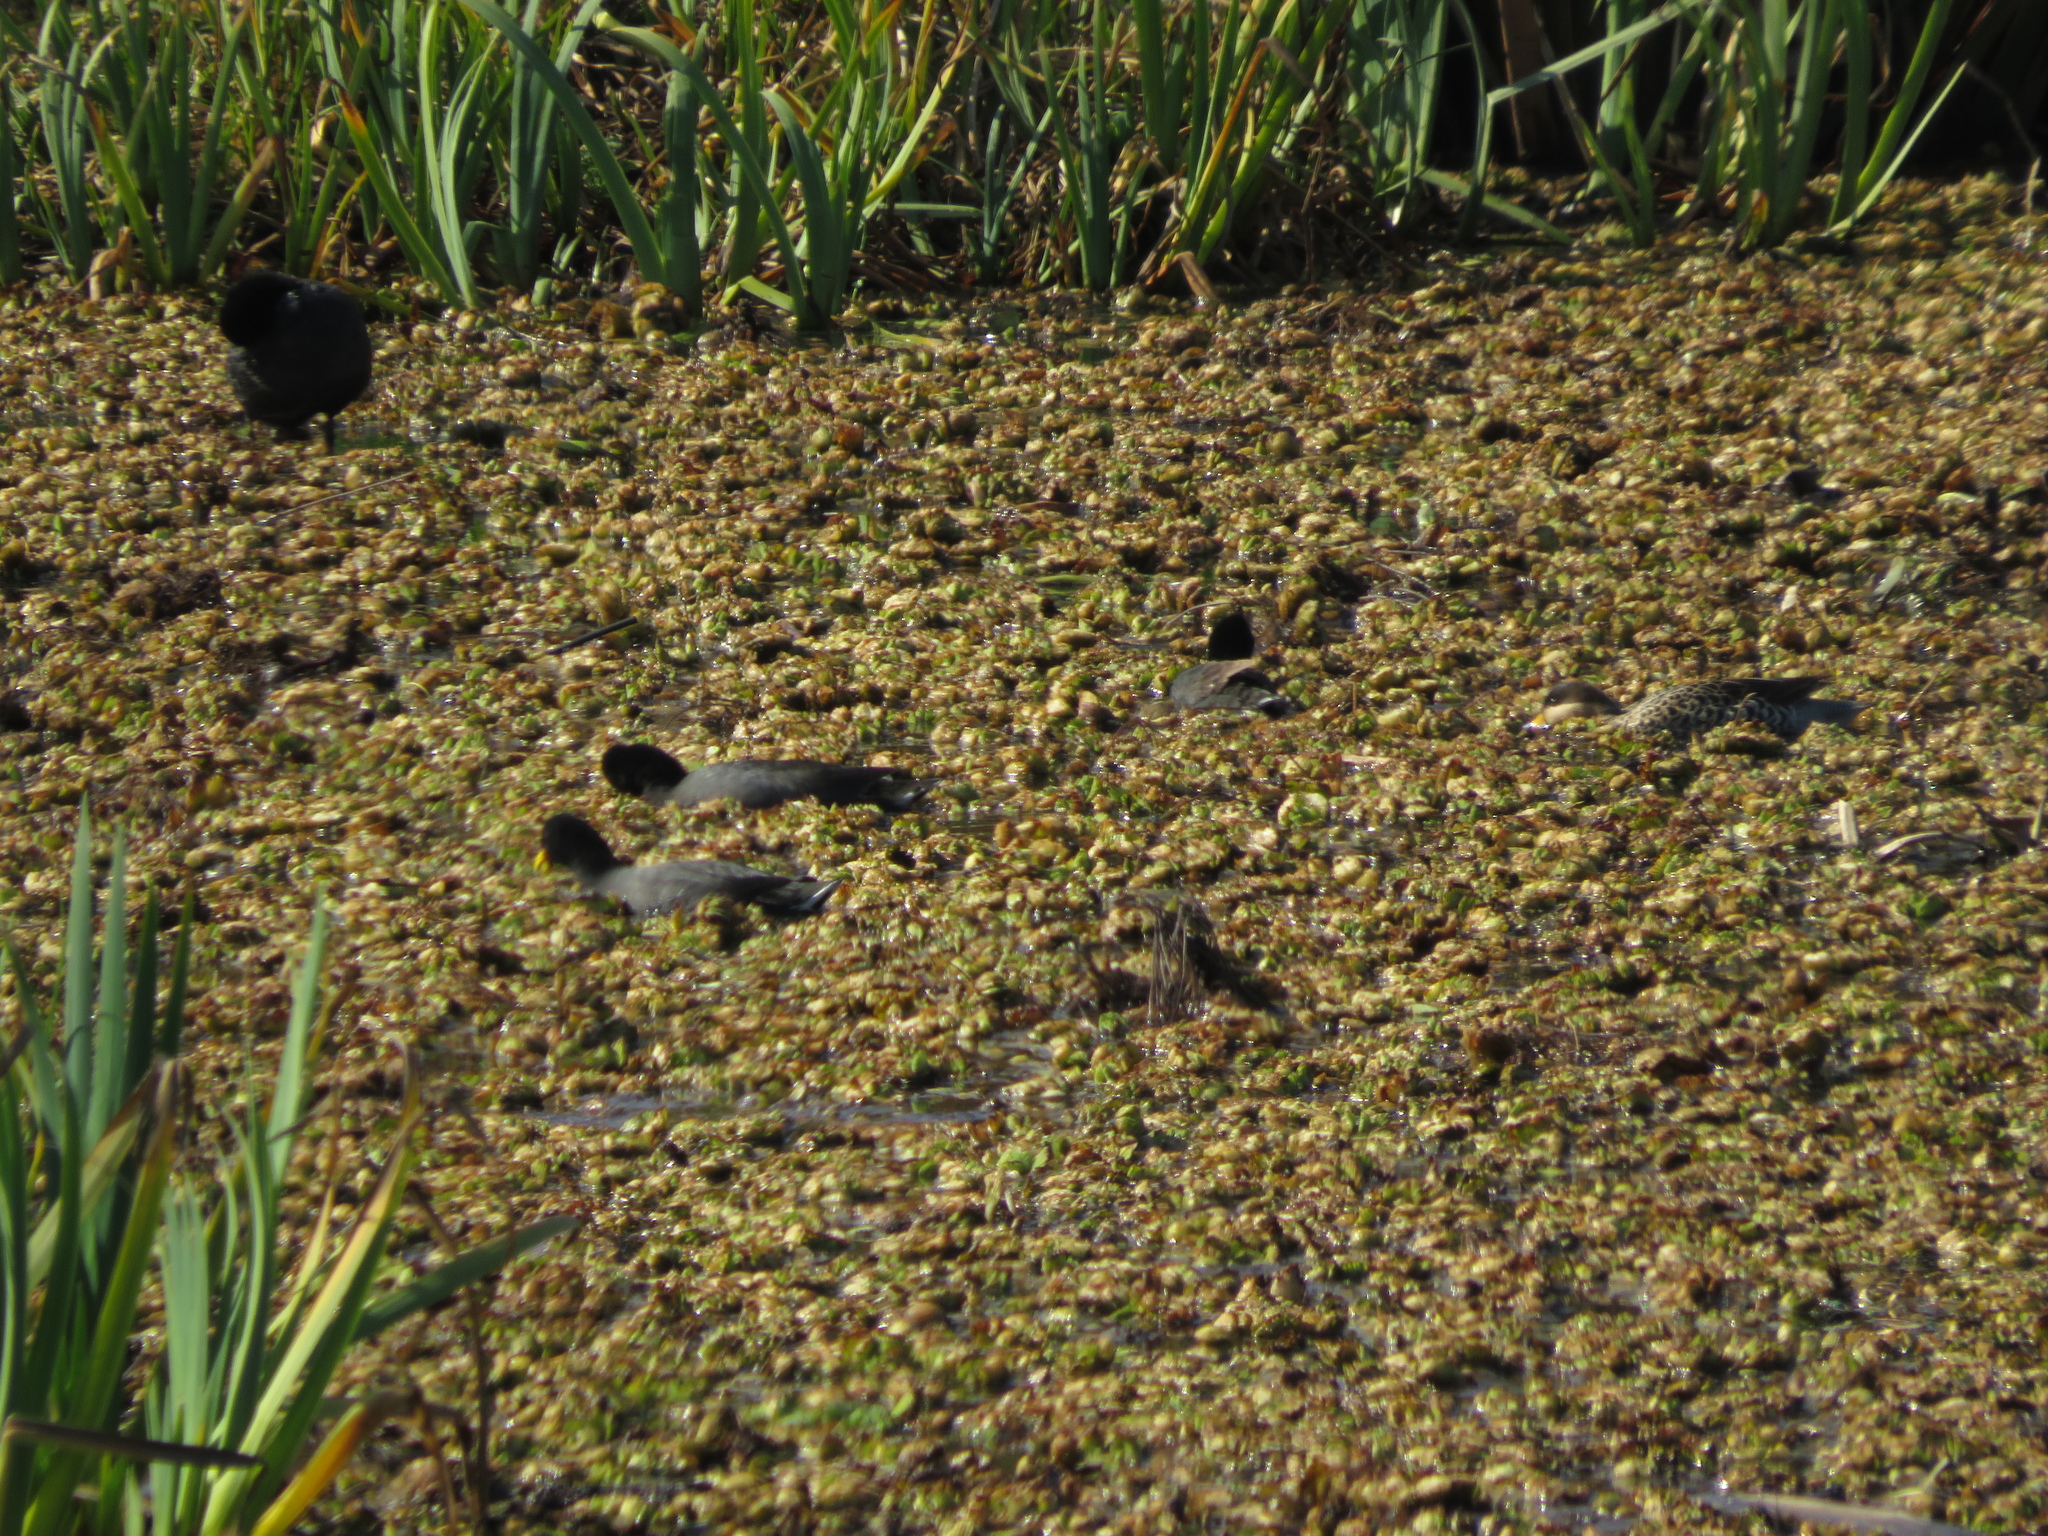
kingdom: Animalia
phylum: Chordata
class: Aves
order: Gruiformes
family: Rallidae
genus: Fulica
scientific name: Fulica rufifrons
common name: Red-fronted coot
